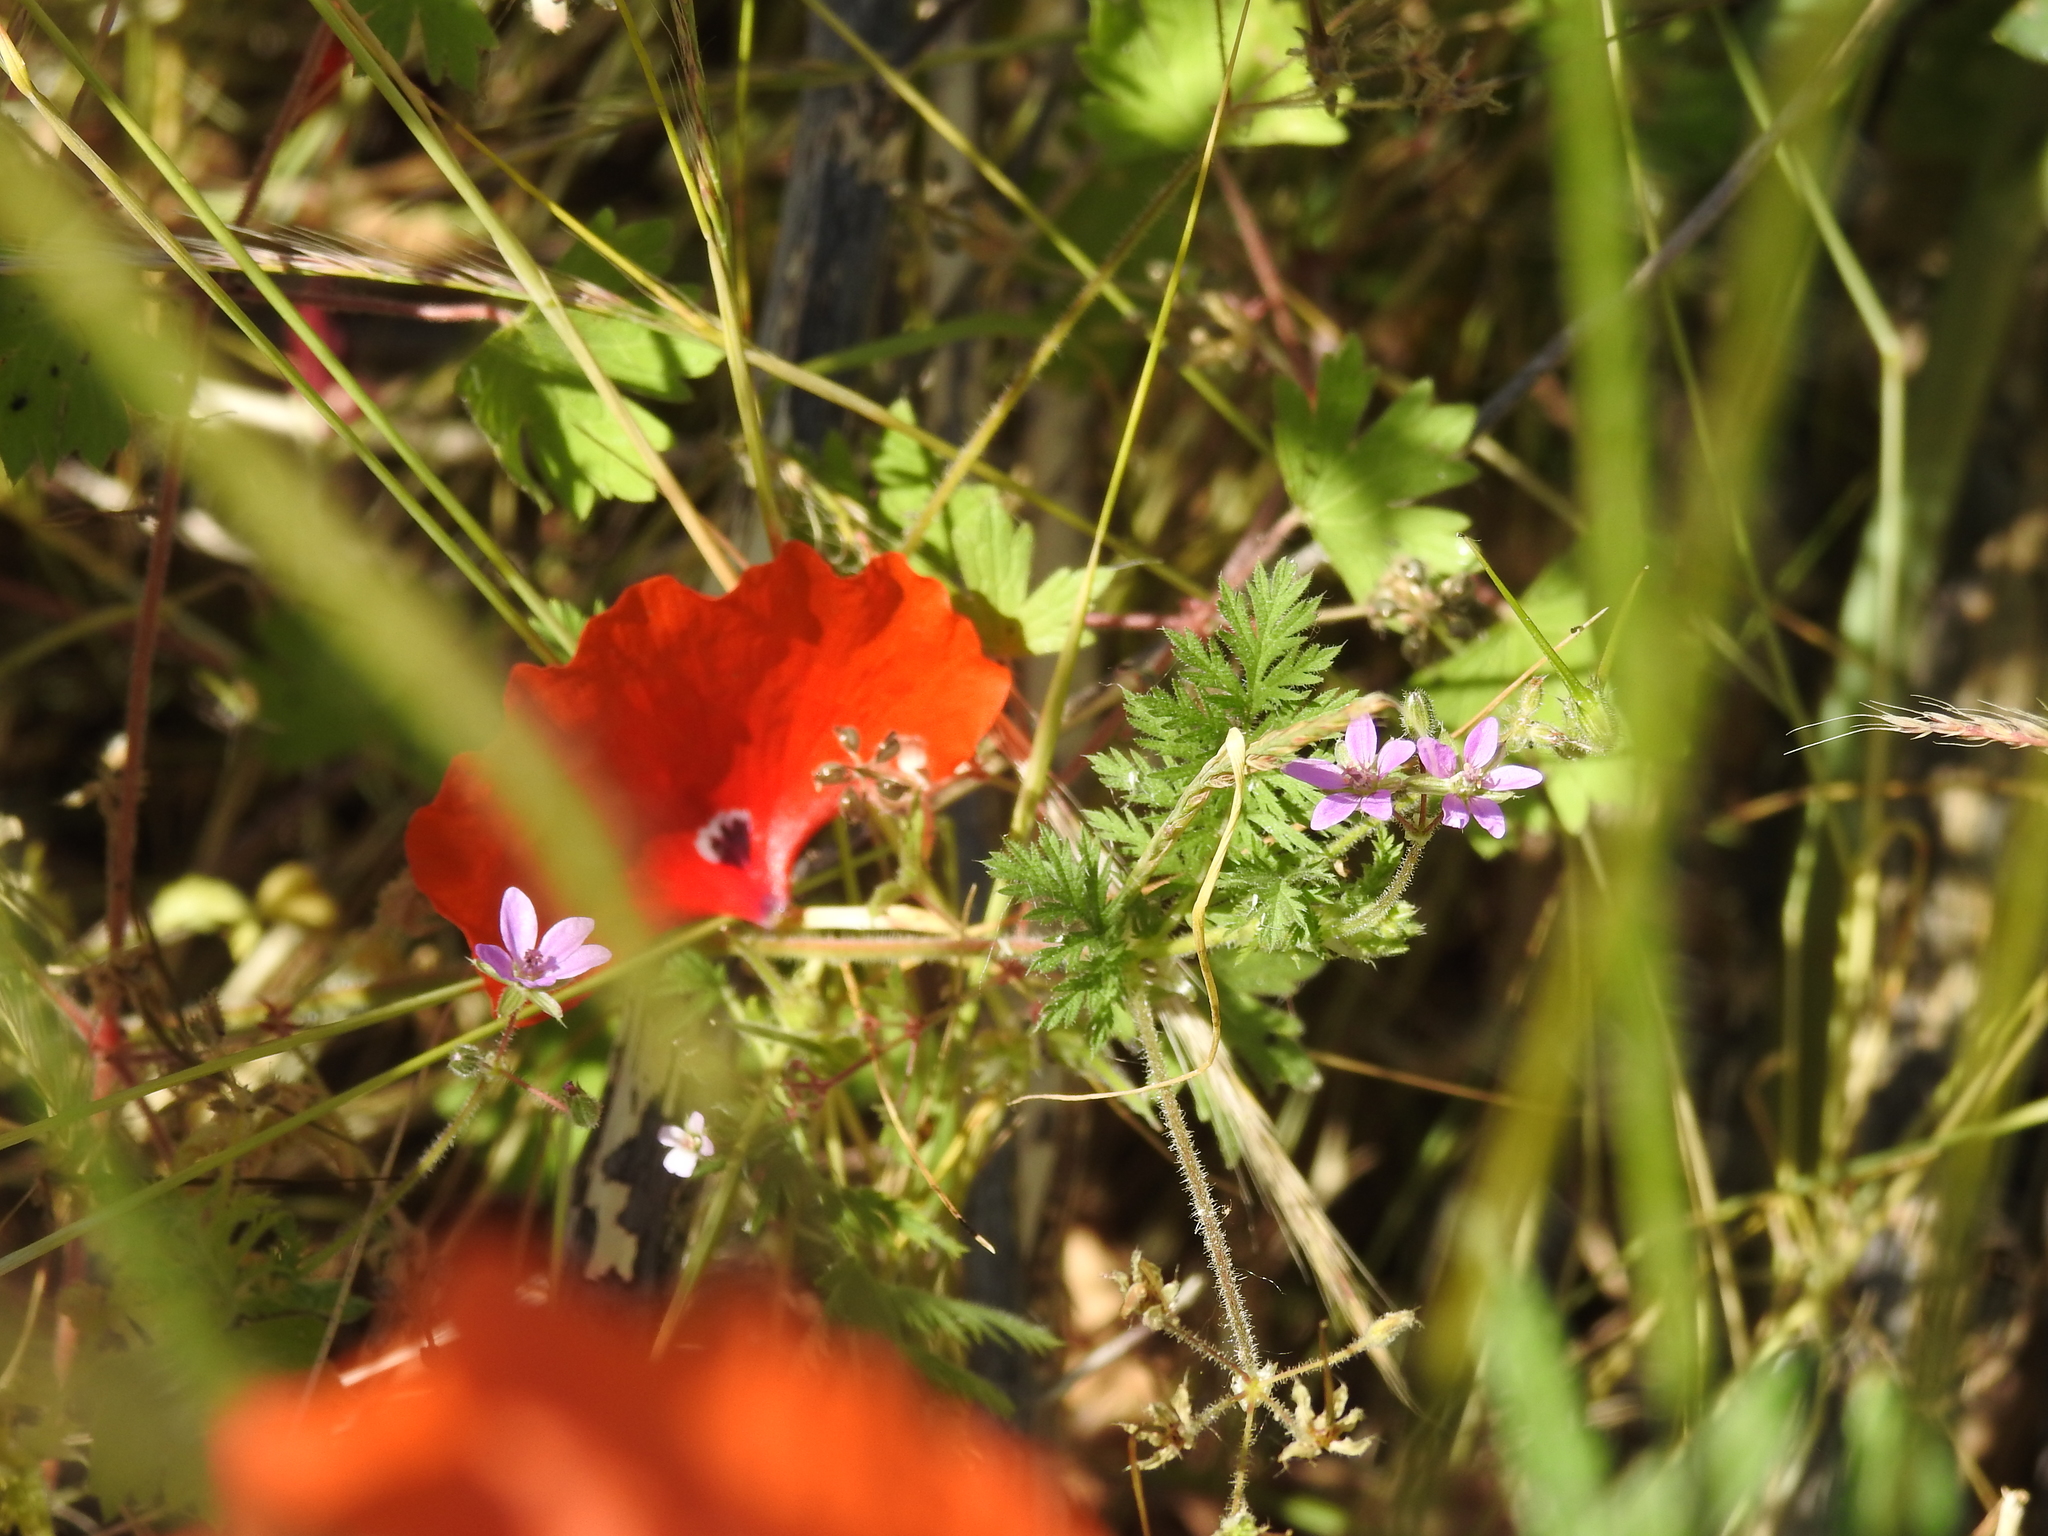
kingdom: Plantae
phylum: Tracheophyta
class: Magnoliopsida
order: Geraniales
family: Geraniaceae
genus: Erodium
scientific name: Erodium cicutarium
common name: Common stork's-bill
